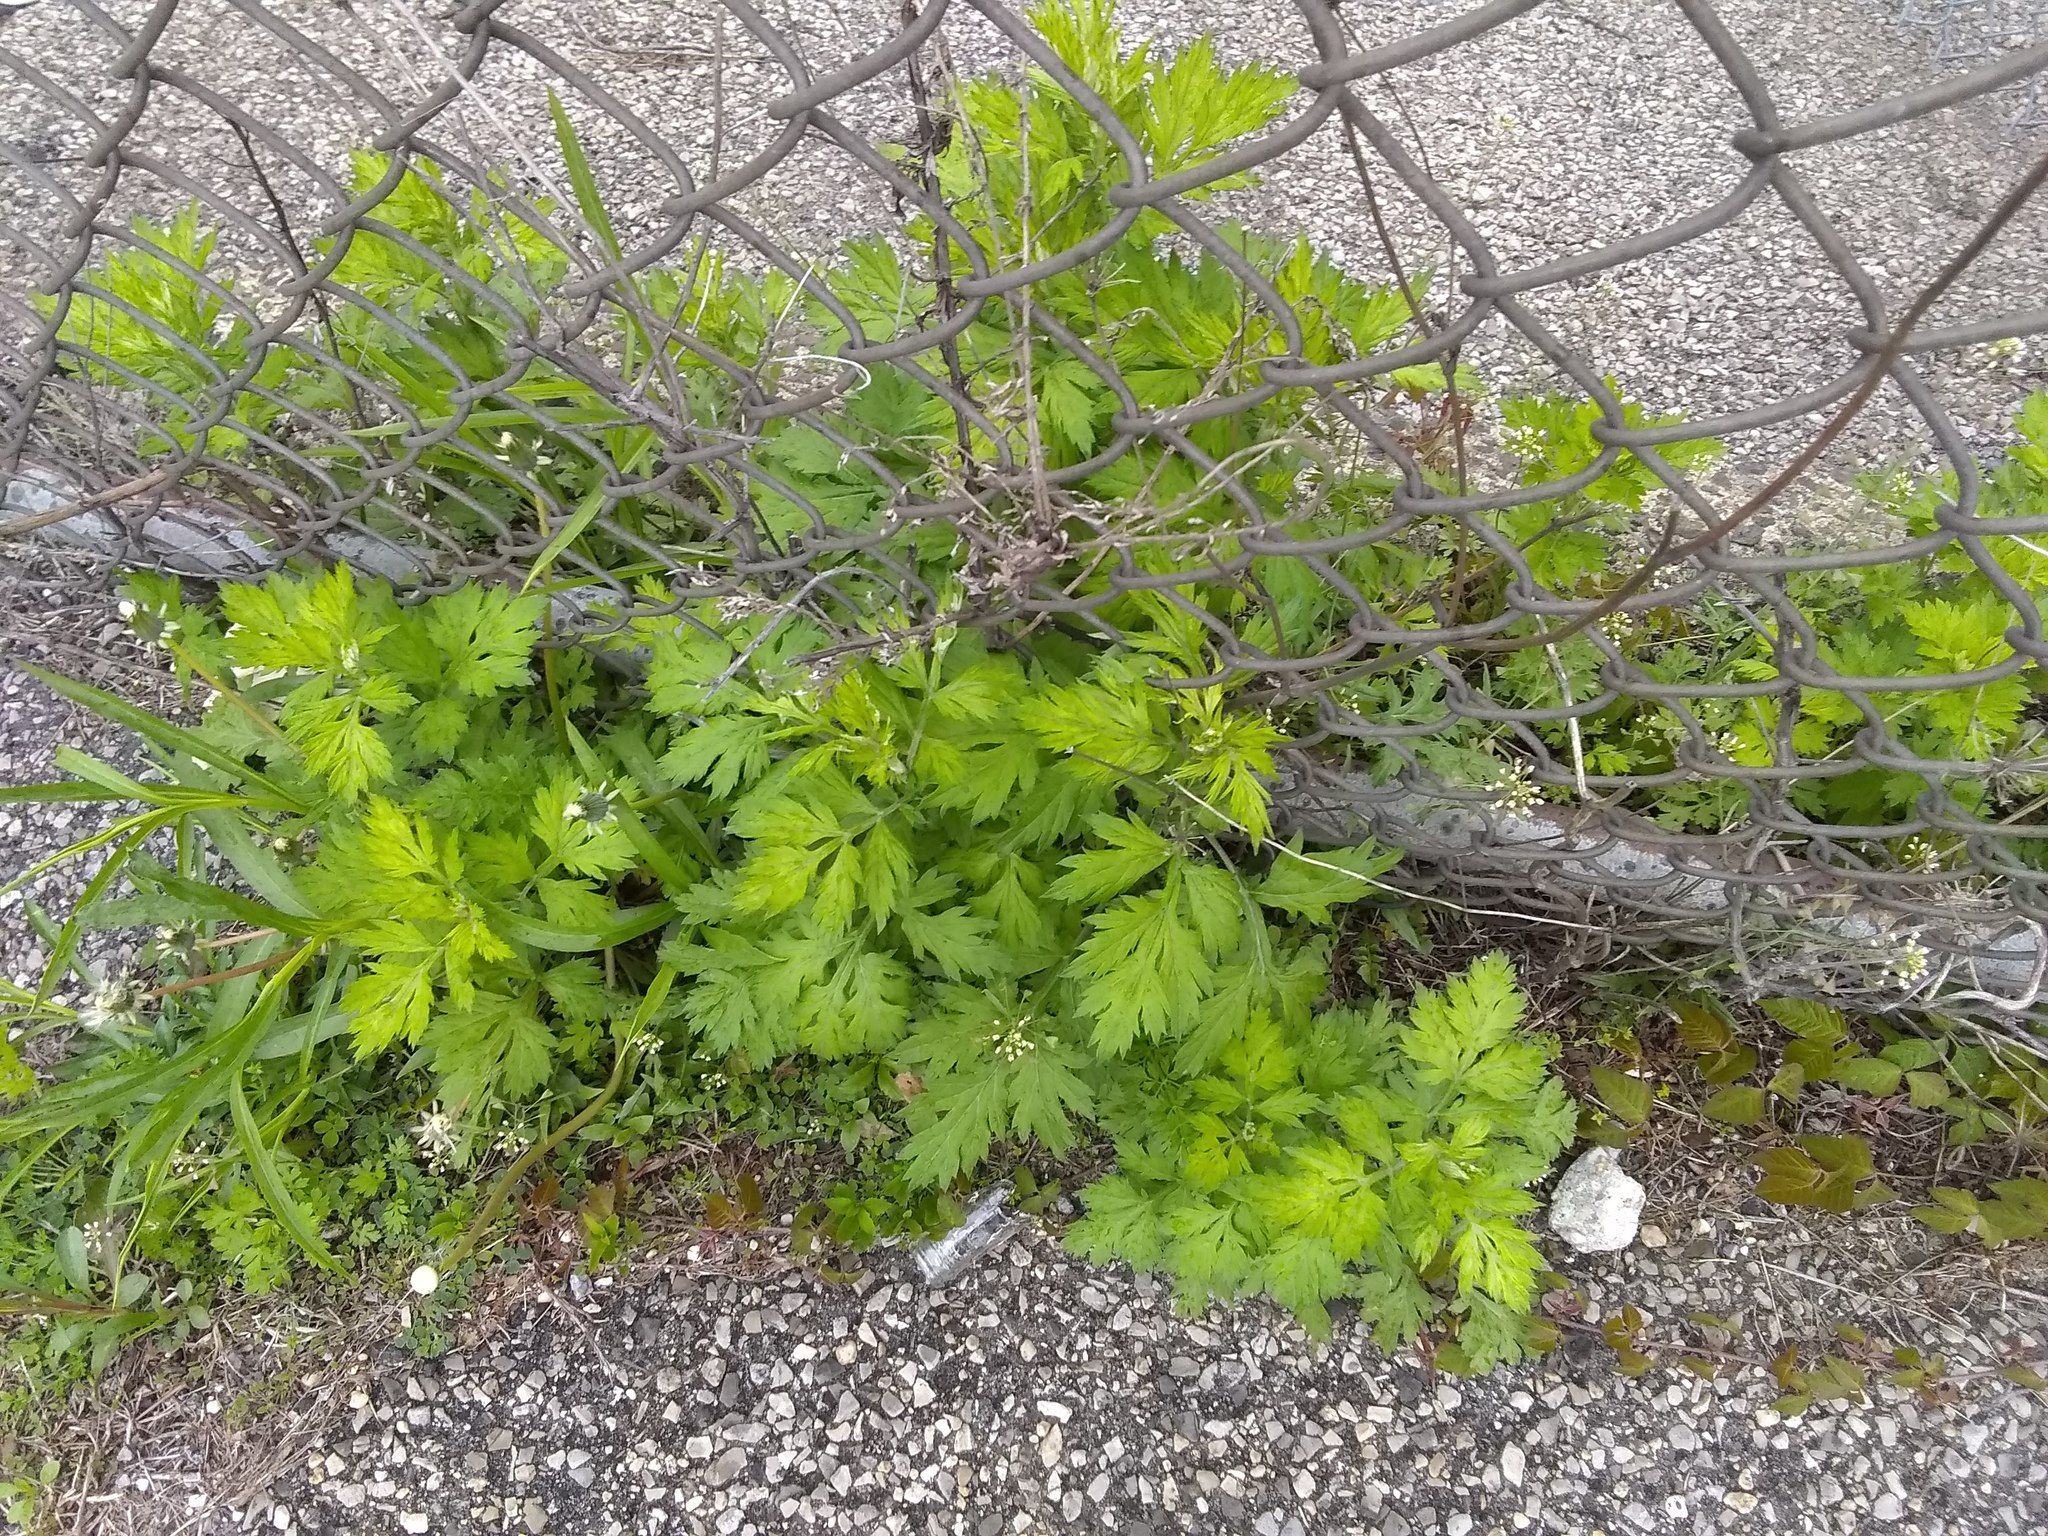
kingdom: Plantae
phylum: Tracheophyta
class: Magnoliopsida
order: Asterales
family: Asteraceae
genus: Artemisia
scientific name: Artemisia vulgaris
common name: Mugwort
